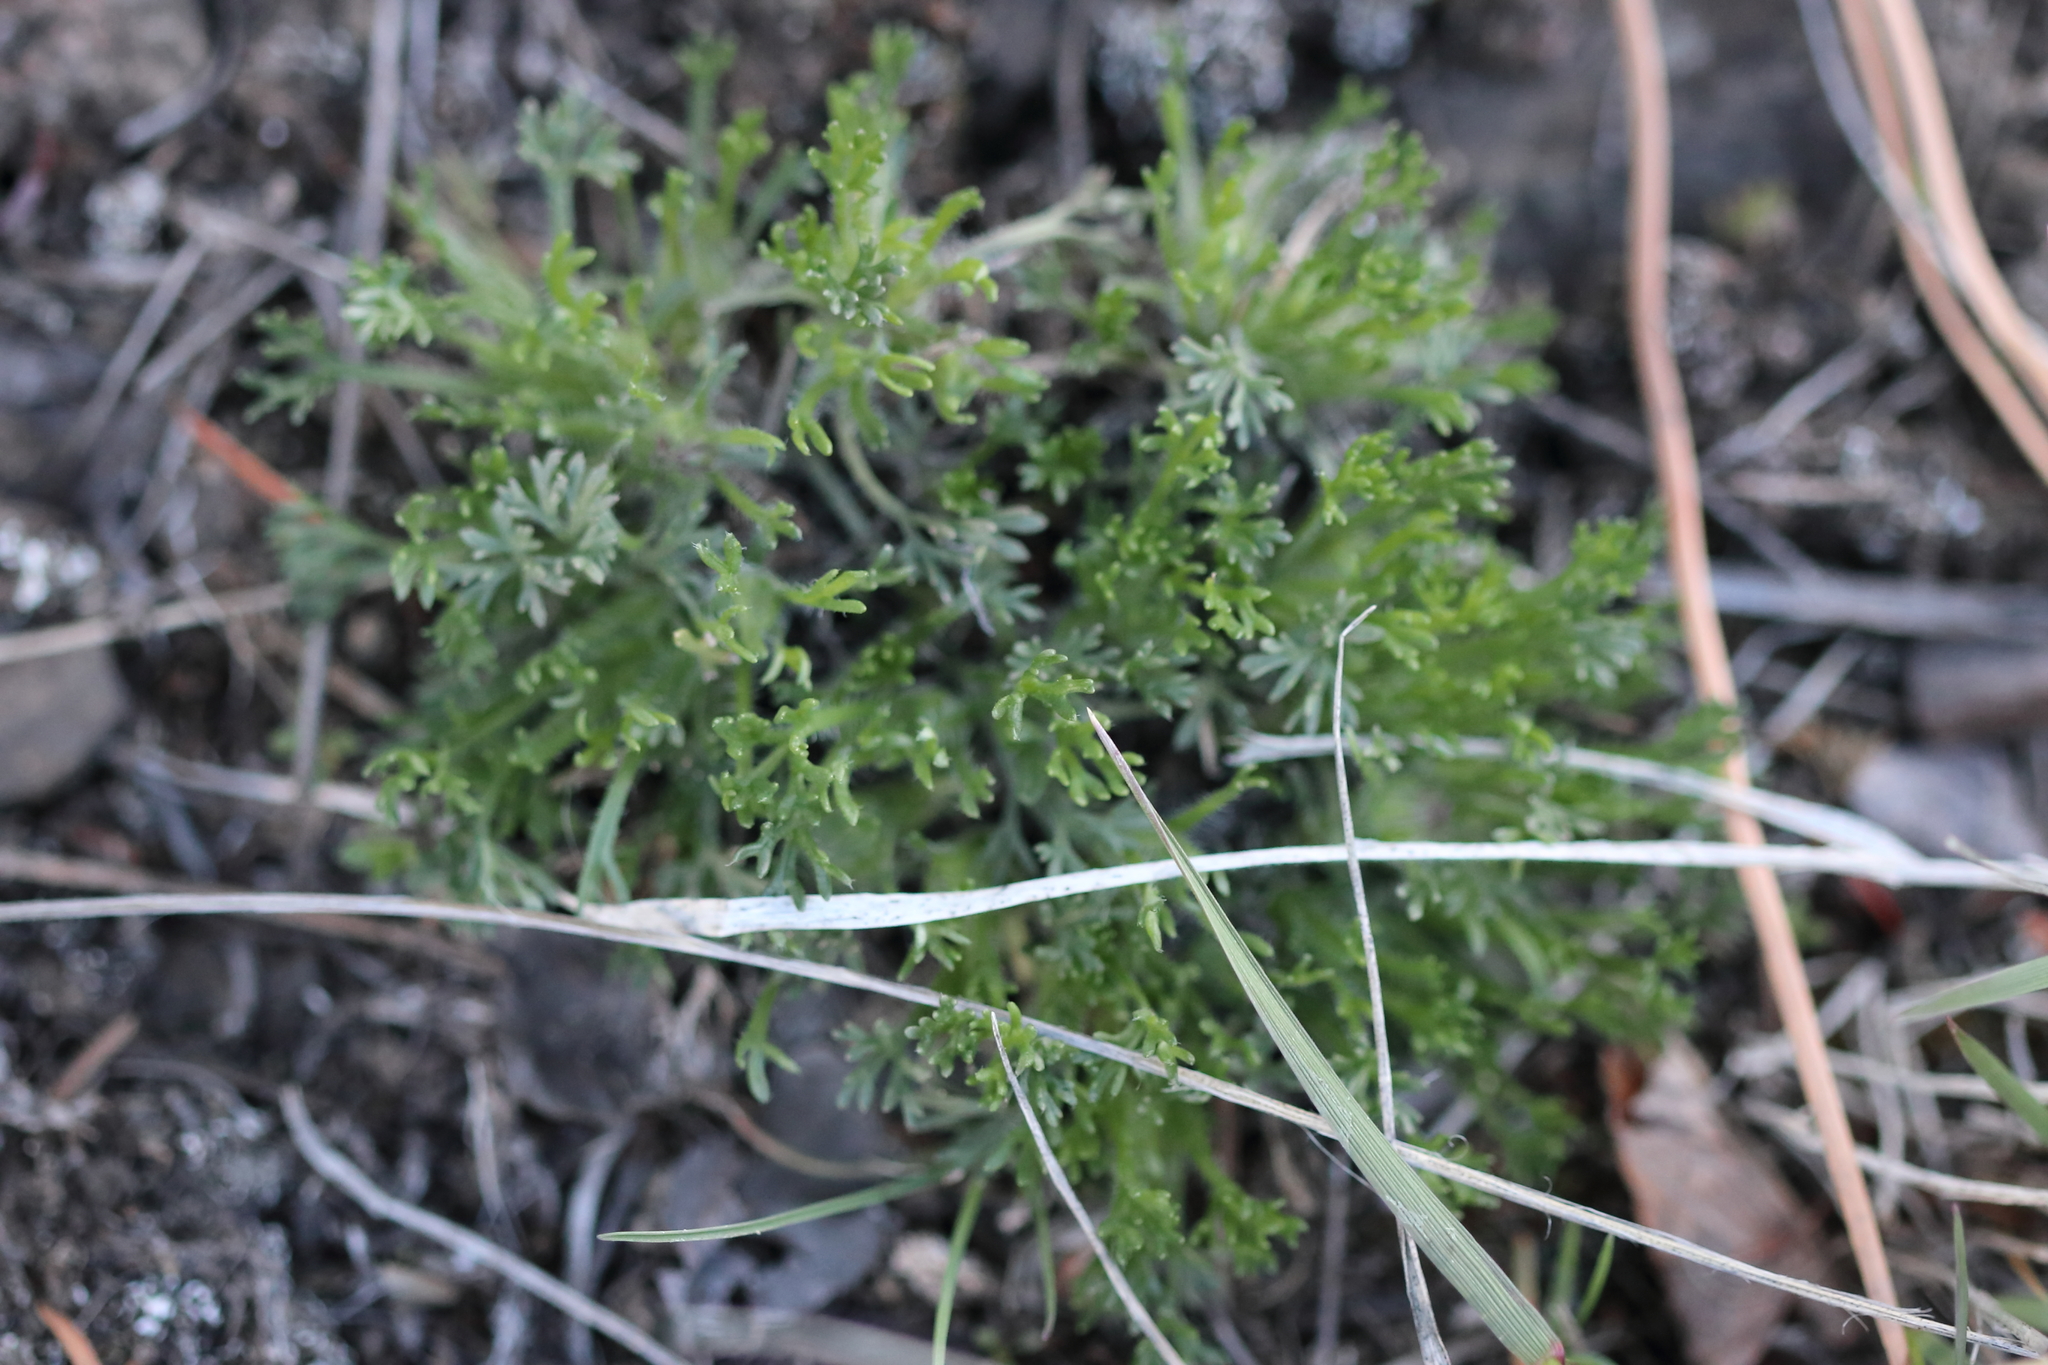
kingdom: Plantae
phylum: Tracheophyta
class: Magnoliopsida
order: Asterales
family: Asteraceae
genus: Erigeron
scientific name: Erigeron compositus
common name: Dwarf mountain fleabane
